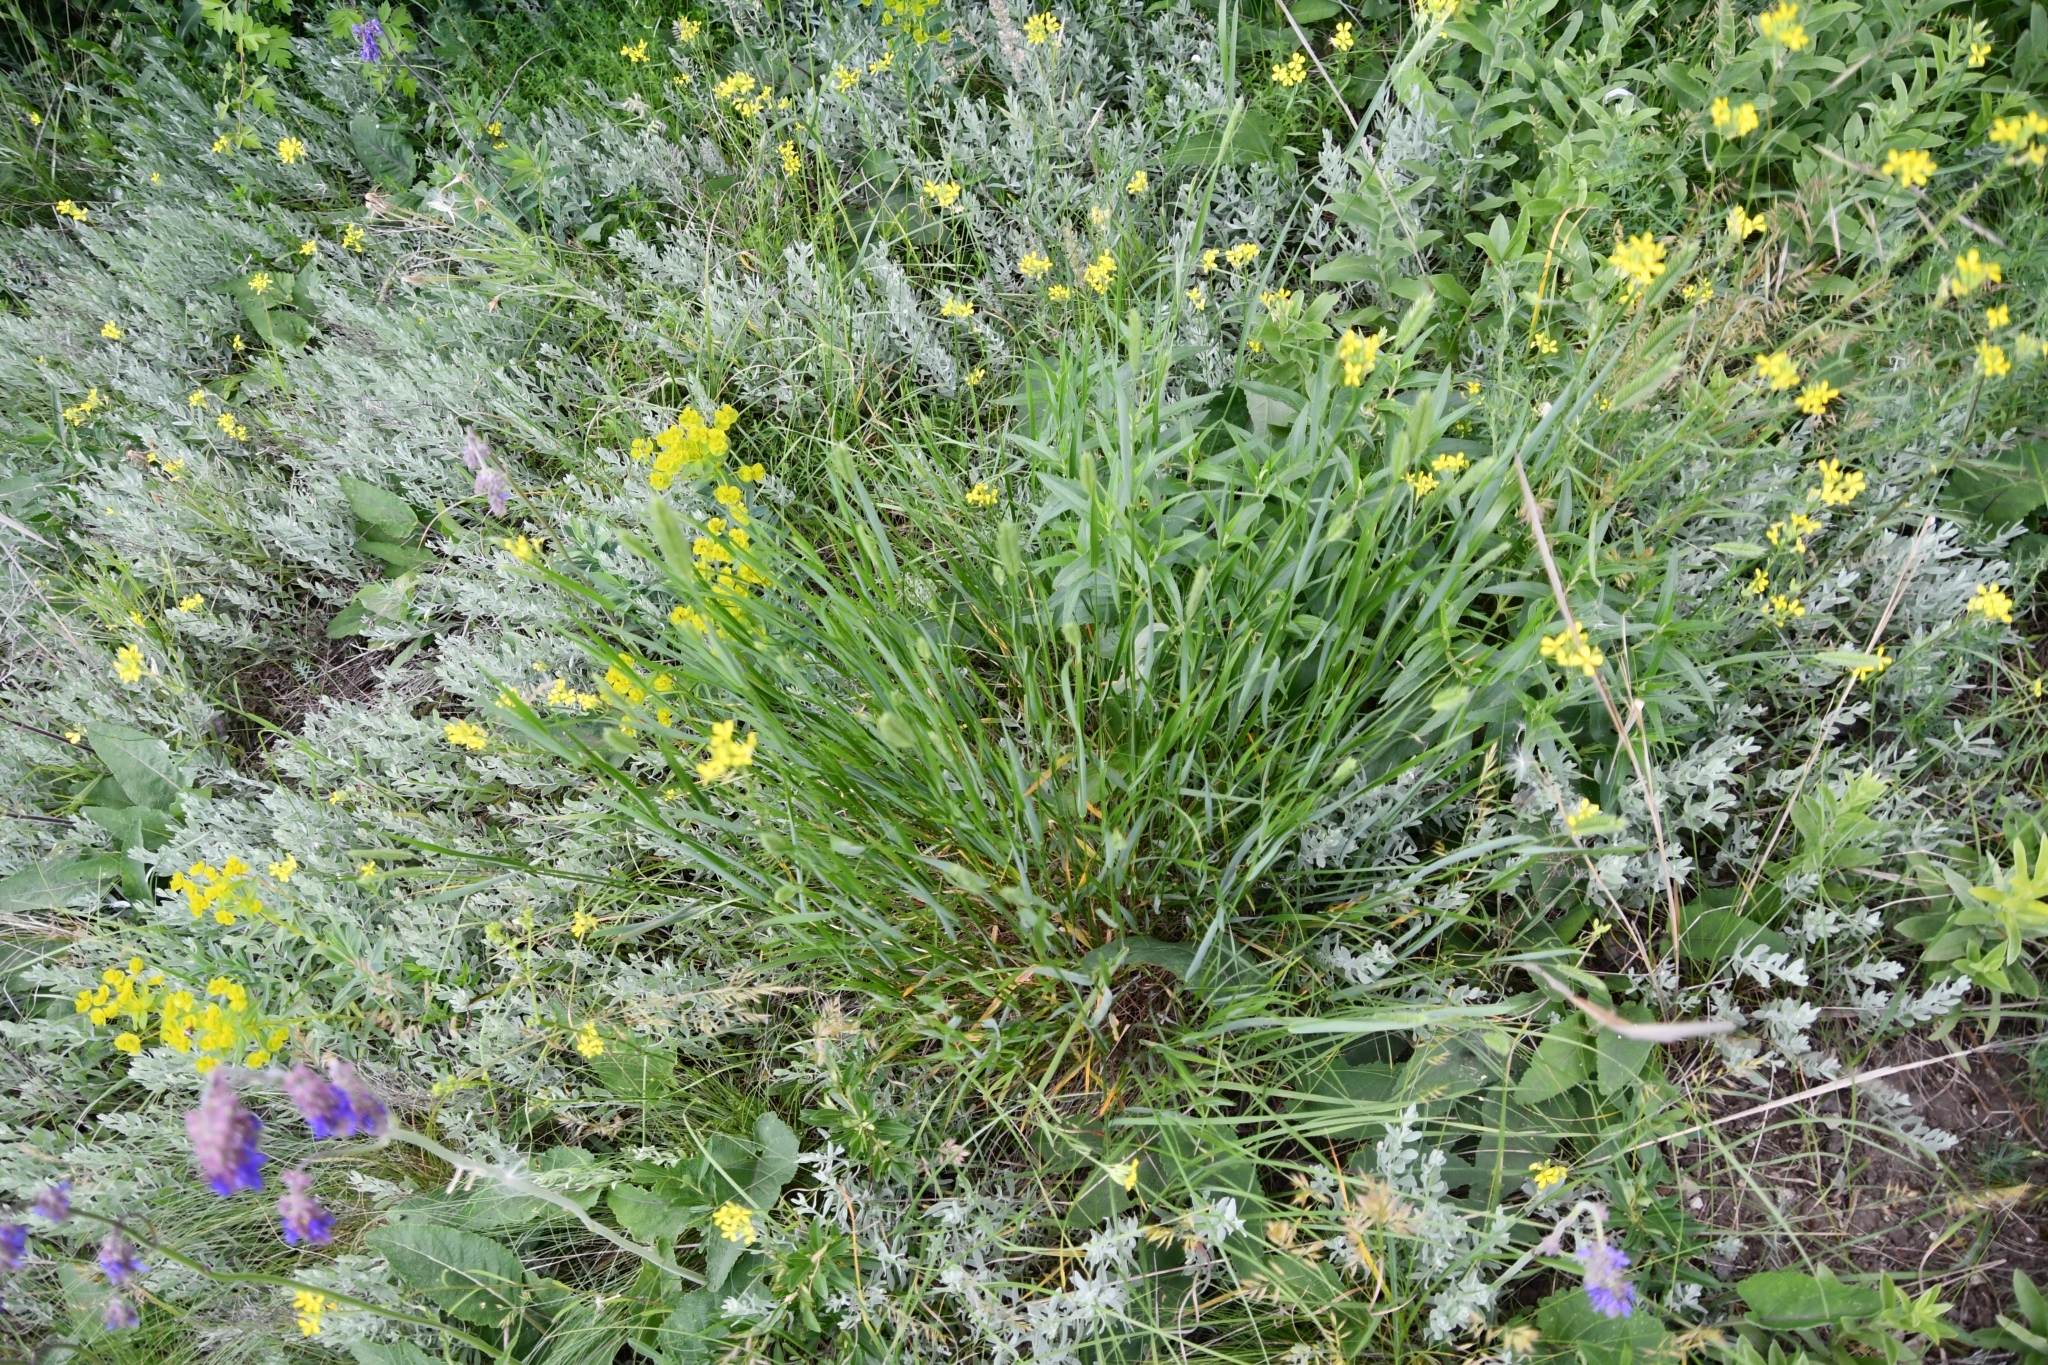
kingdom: Plantae
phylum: Tracheophyta
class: Liliopsida
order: Poales
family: Poaceae
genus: Agropyron
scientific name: Agropyron cristatum
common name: Crested wheatgrass
